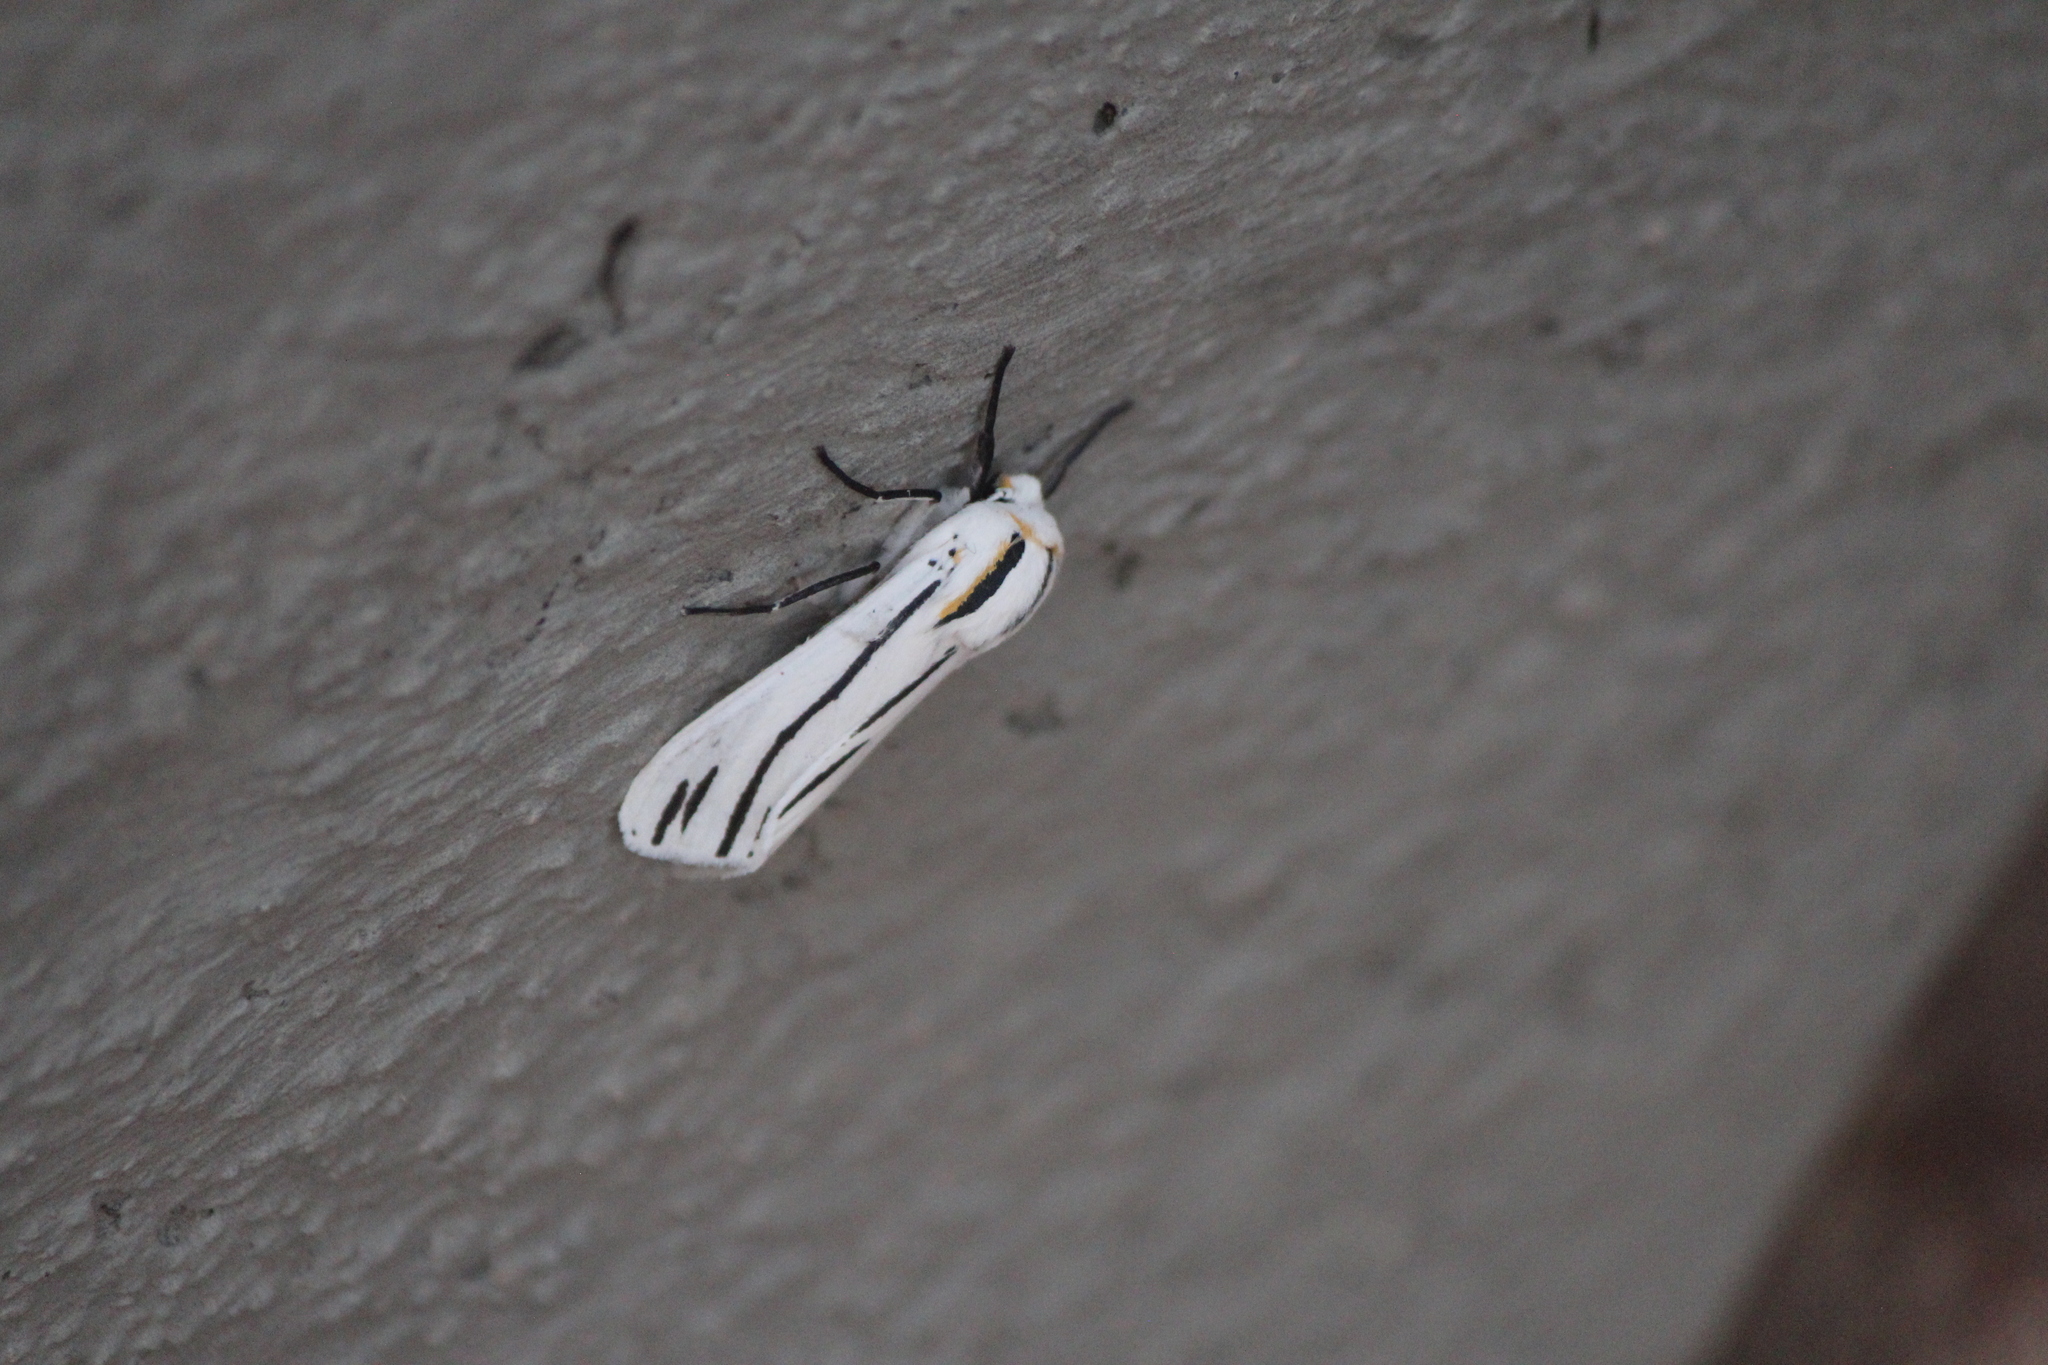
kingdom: Animalia
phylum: Arthropoda
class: Insecta
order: Lepidoptera
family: Erebidae
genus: Ectypia
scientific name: Ectypia clio
